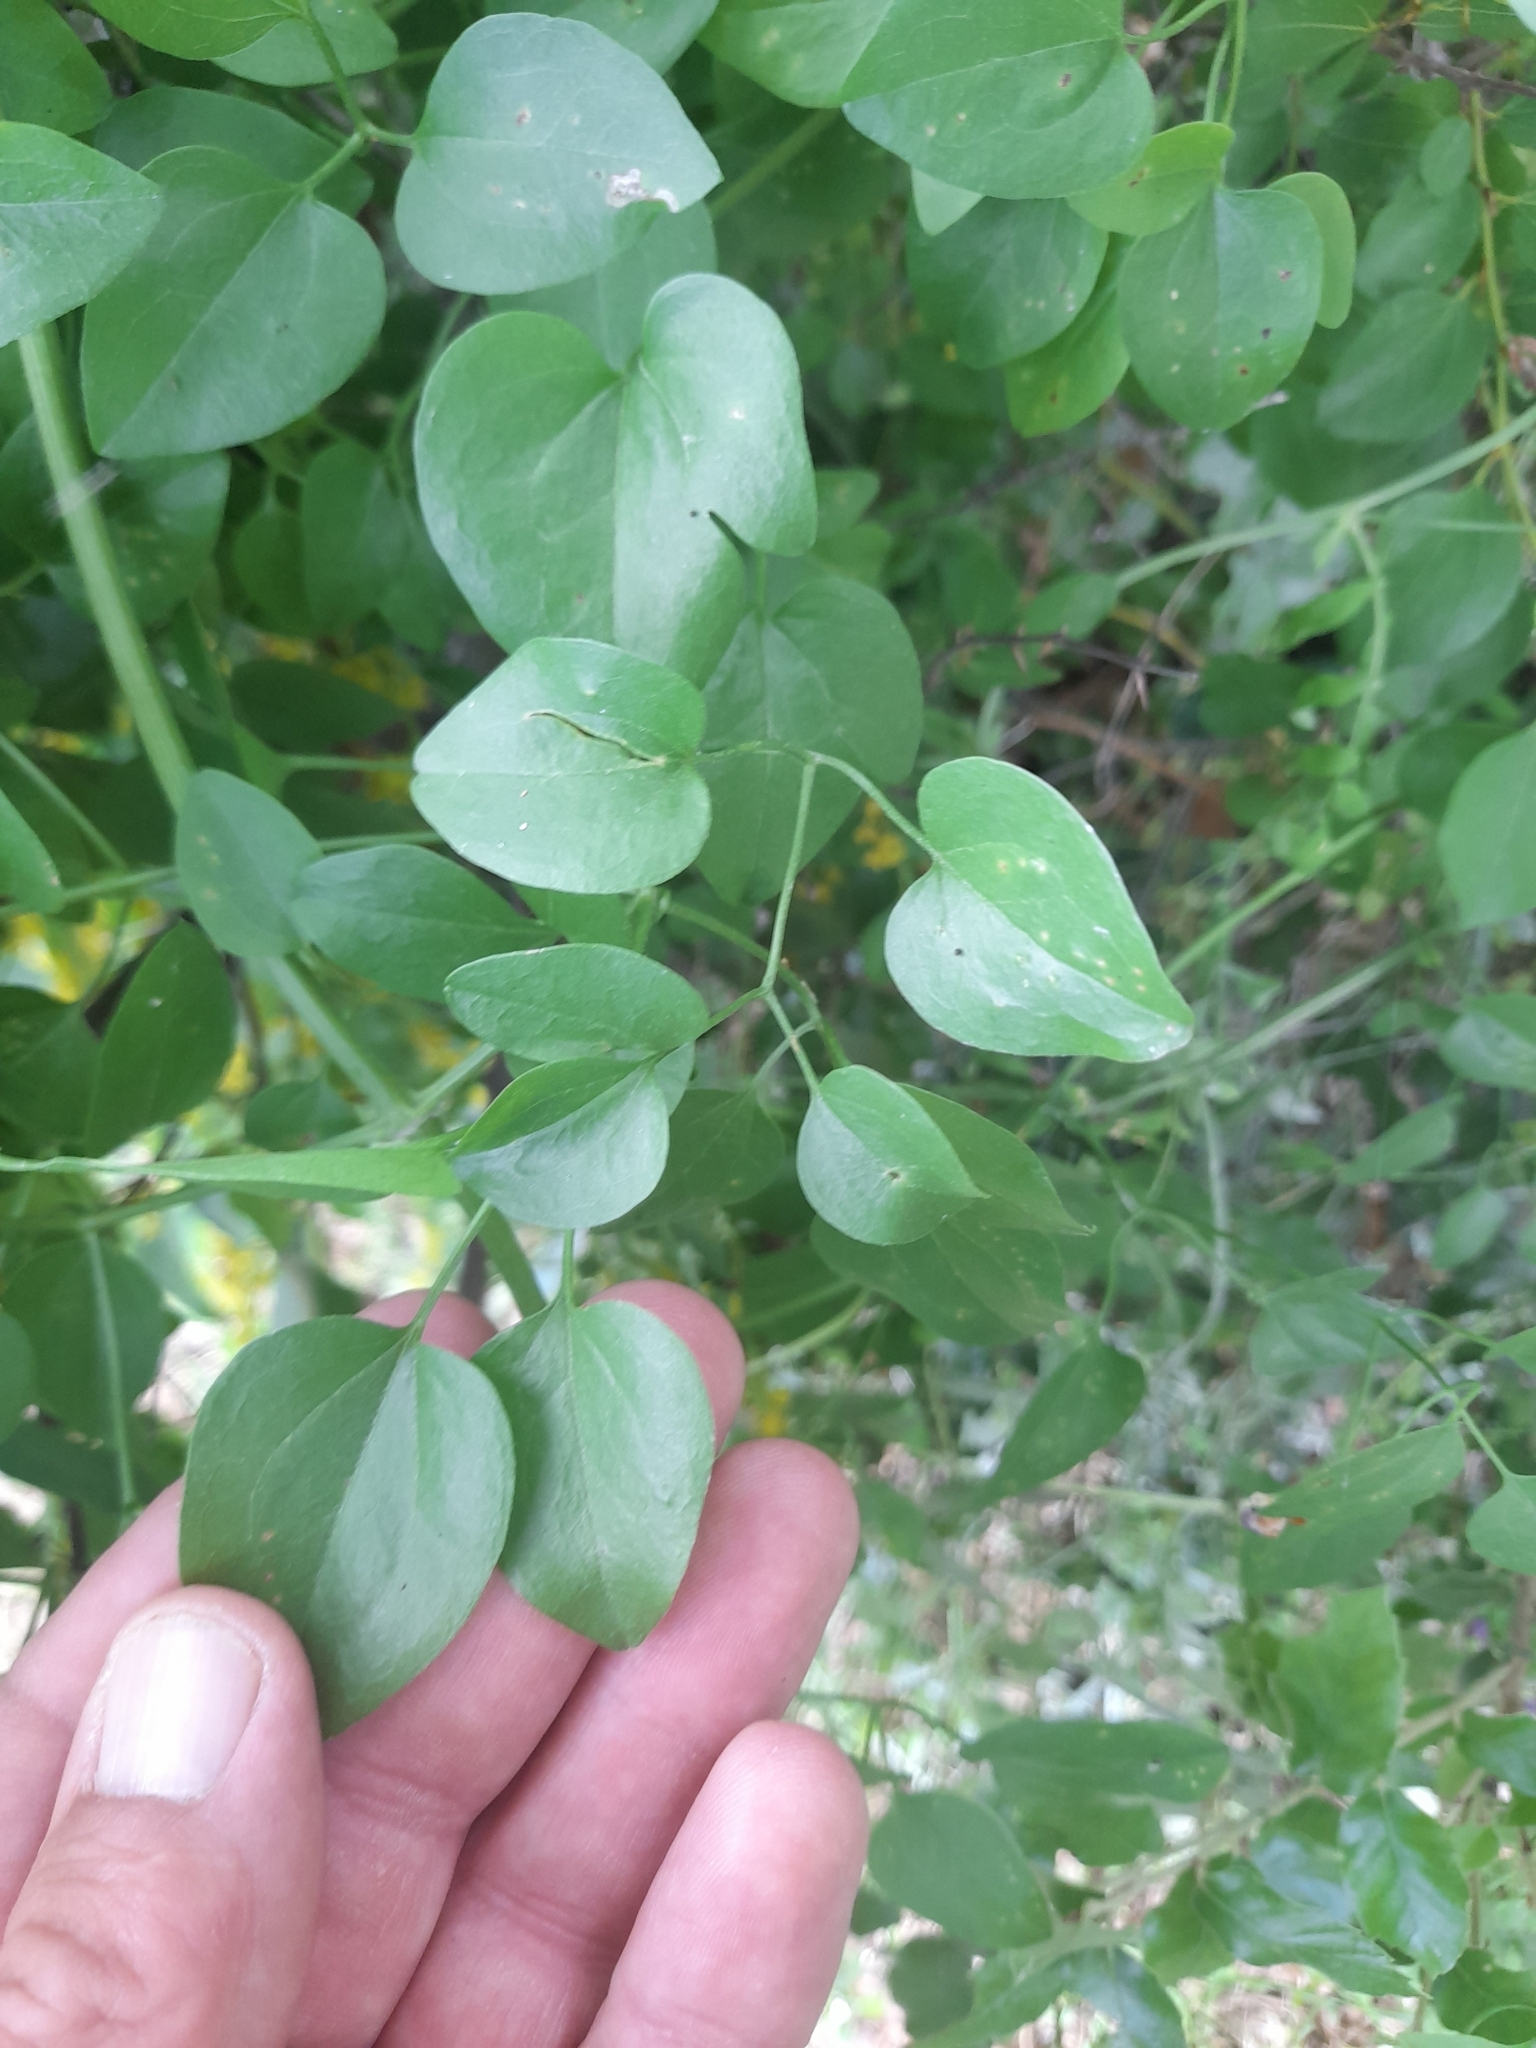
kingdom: Plantae
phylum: Tracheophyta
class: Magnoliopsida
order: Ranunculales
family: Ranunculaceae
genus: Clematis
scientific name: Clematis flammula
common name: Virgin's-bower
